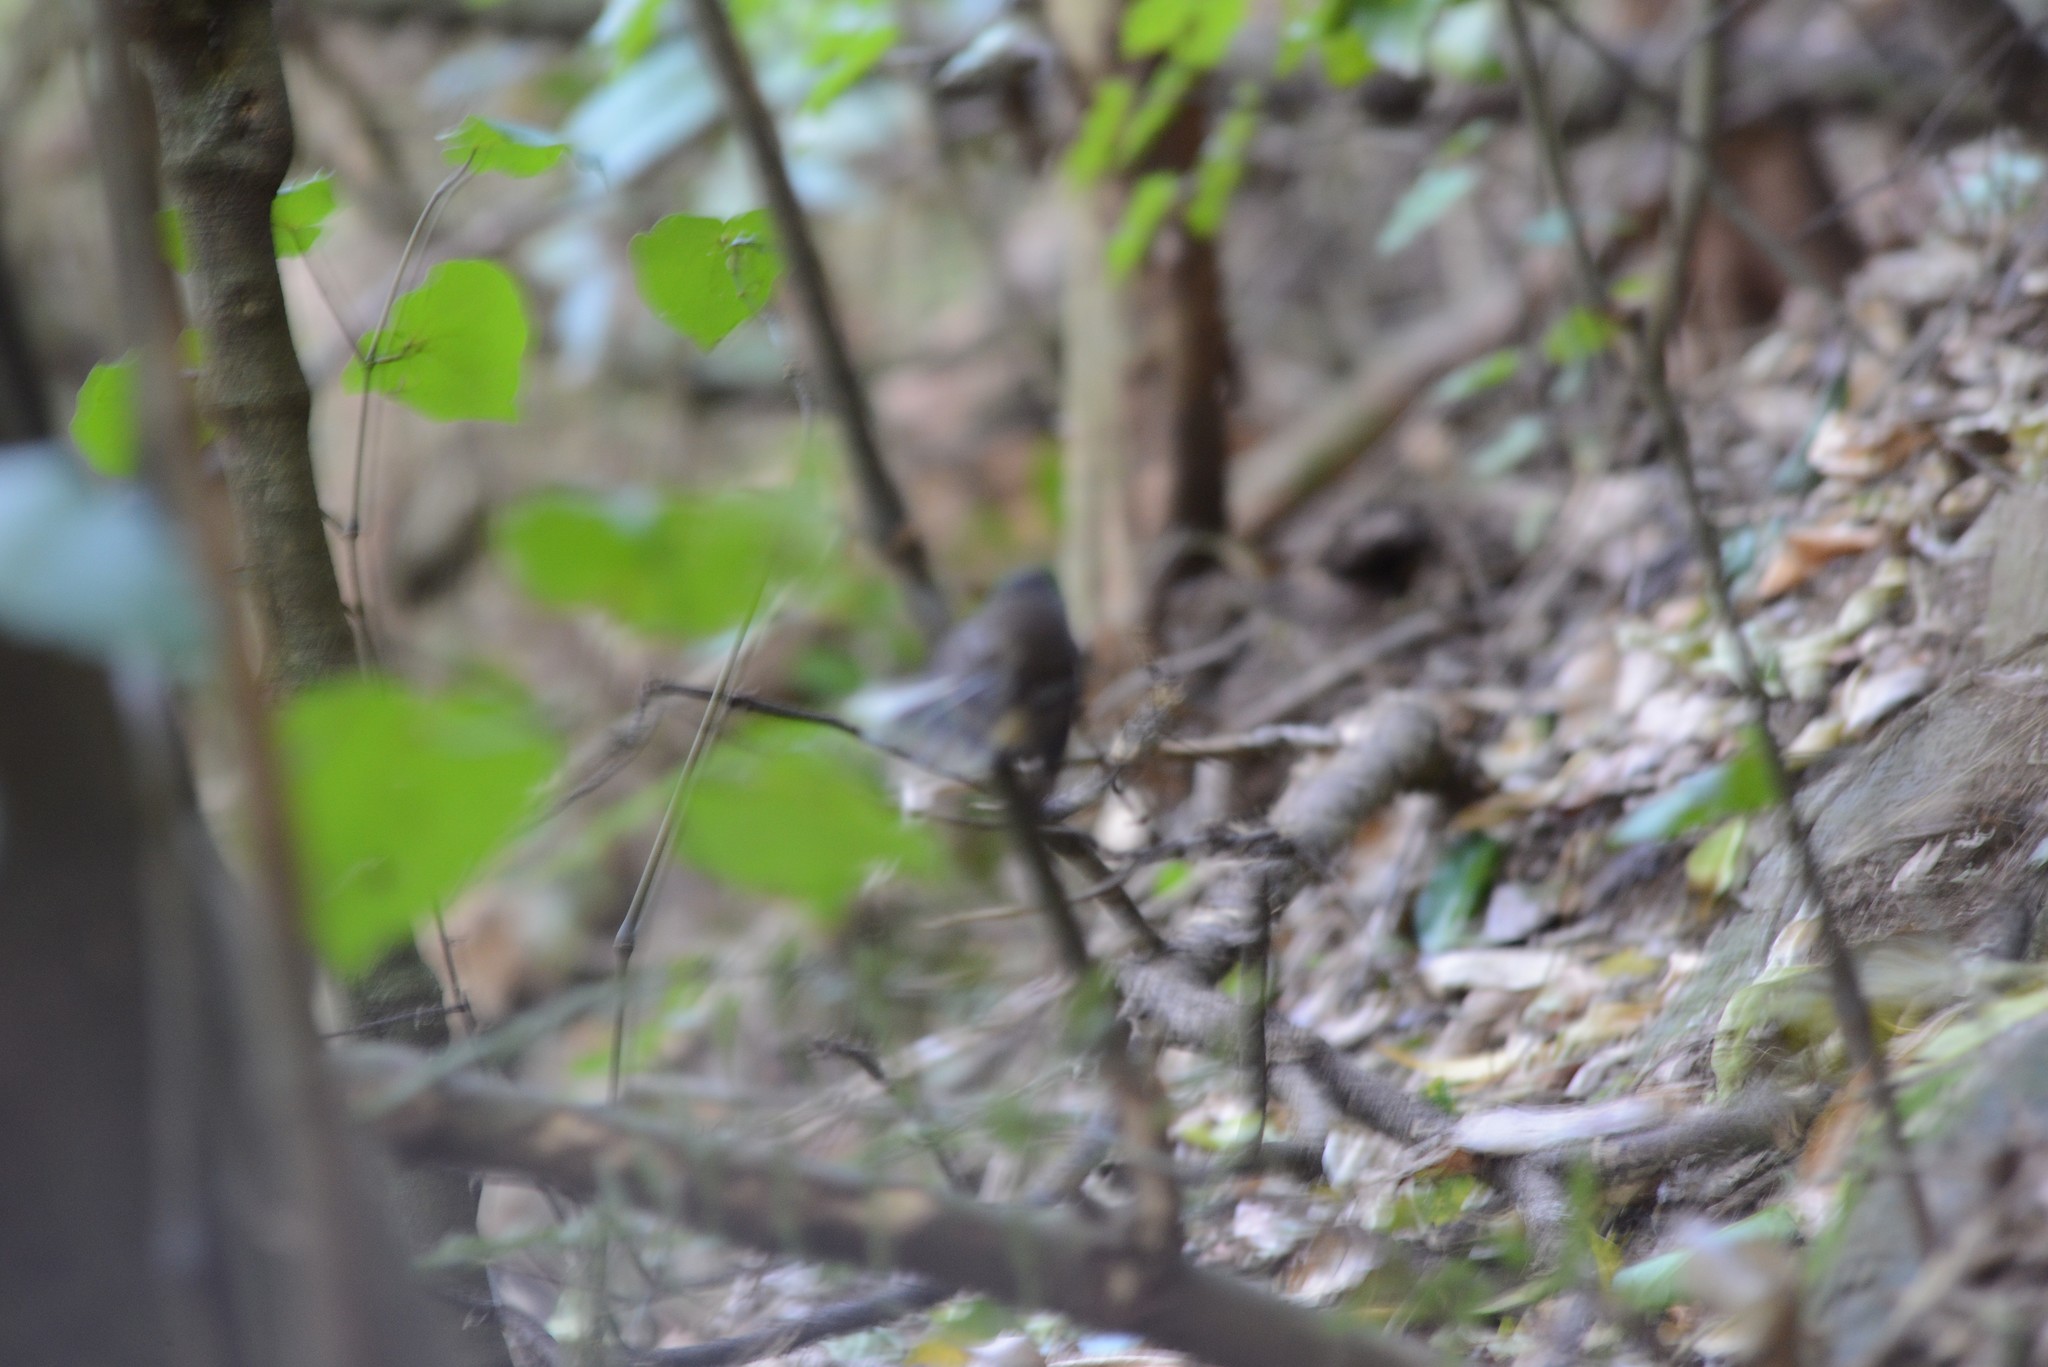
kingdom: Animalia
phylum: Chordata
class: Aves
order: Passeriformes
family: Rhipiduridae
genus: Rhipidura
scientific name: Rhipidura fuliginosa
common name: New zealand fantail
